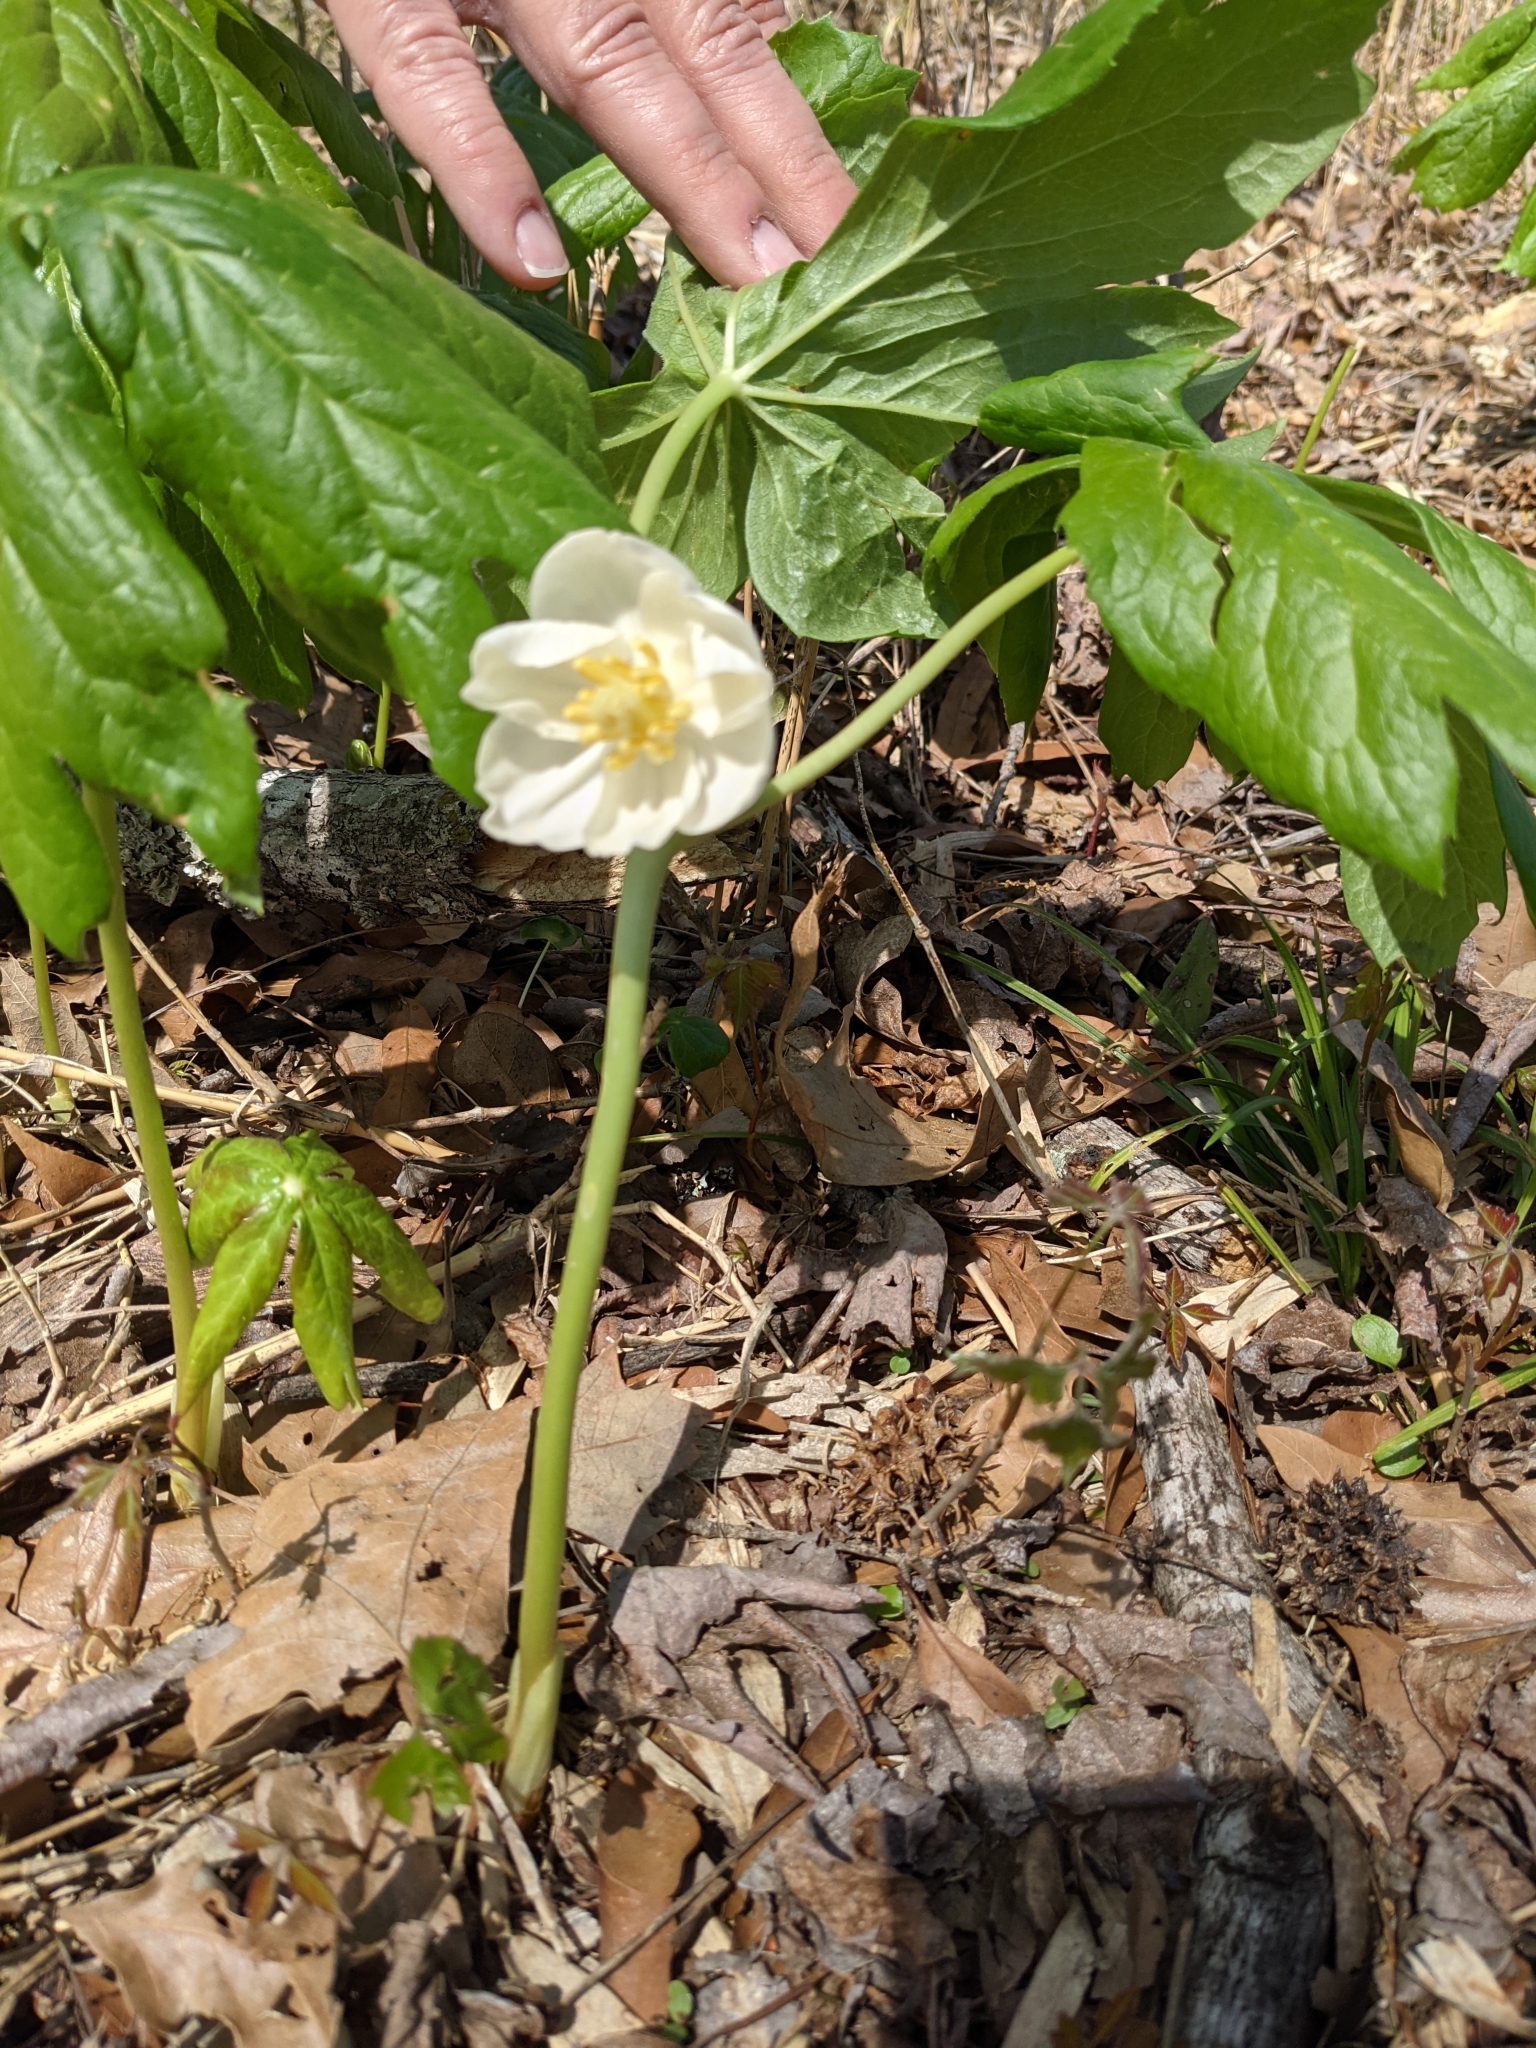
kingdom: Plantae
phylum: Tracheophyta
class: Magnoliopsida
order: Ranunculales
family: Berberidaceae
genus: Podophyllum
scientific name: Podophyllum peltatum
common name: Wild mandrake
